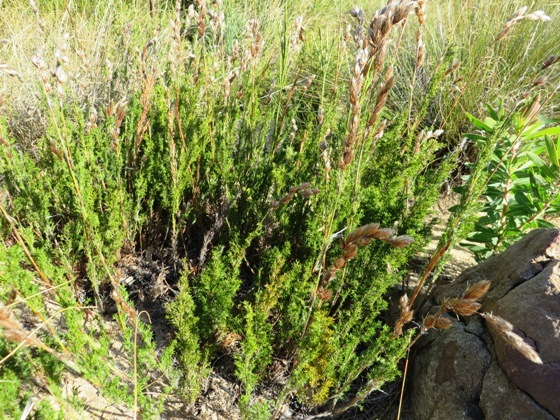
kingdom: Plantae
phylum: Tracheophyta
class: Liliopsida
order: Poales
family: Restionaceae
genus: Thamnochortus
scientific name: Thamnochortus fruticosus
